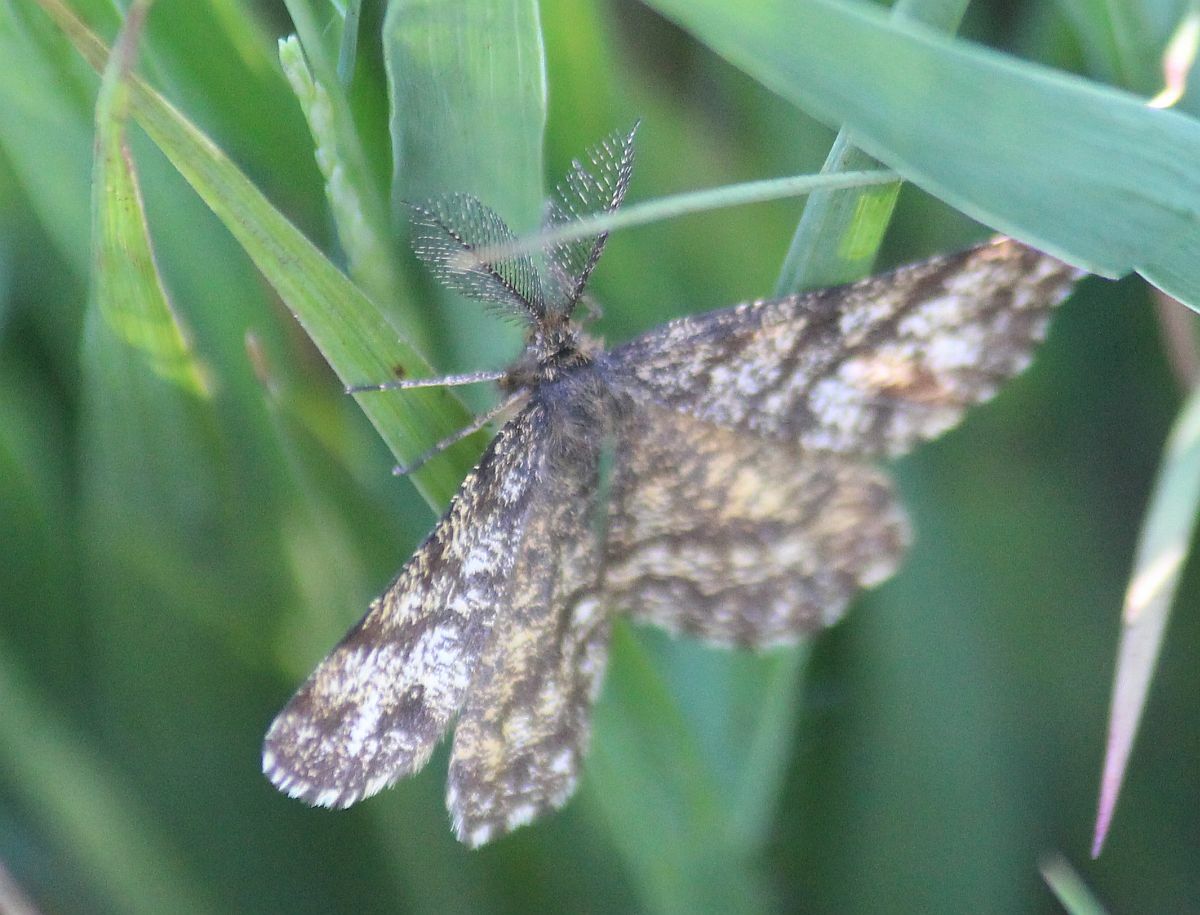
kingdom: Animalia
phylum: Arthropoda
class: Insecta
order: Lepidoptera
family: Geometridae
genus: Ematurga
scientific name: Ematurga atomaria
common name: Common heath
